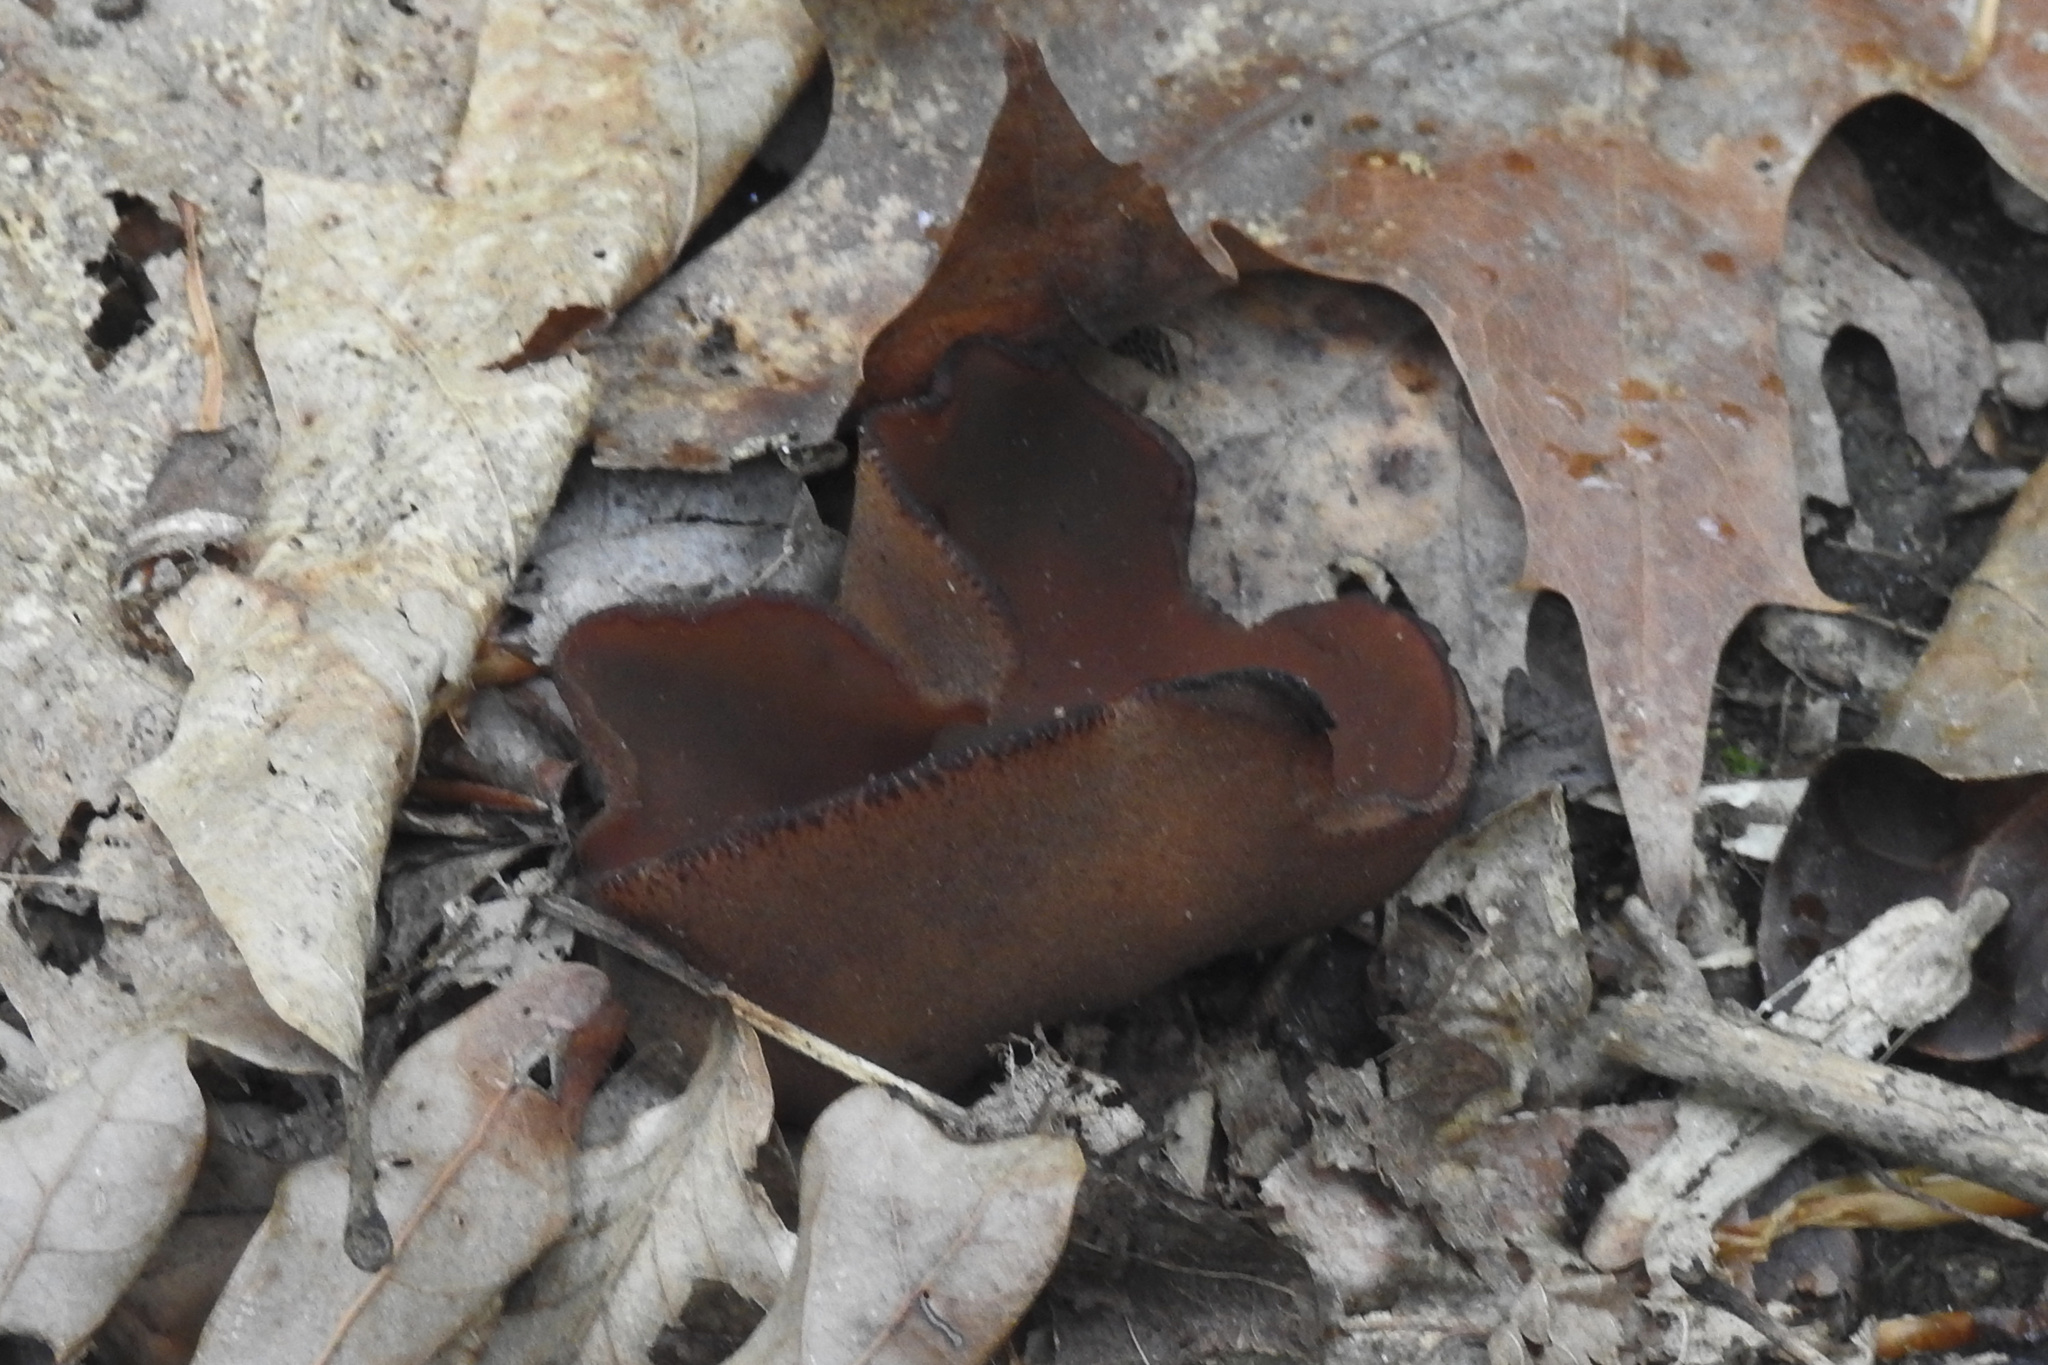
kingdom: Fungi
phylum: Ascomycota
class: Pezizomycetes
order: Pezizales
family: Pezizaceae
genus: Phylloscypha
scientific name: Phylloscypha phyllogena
